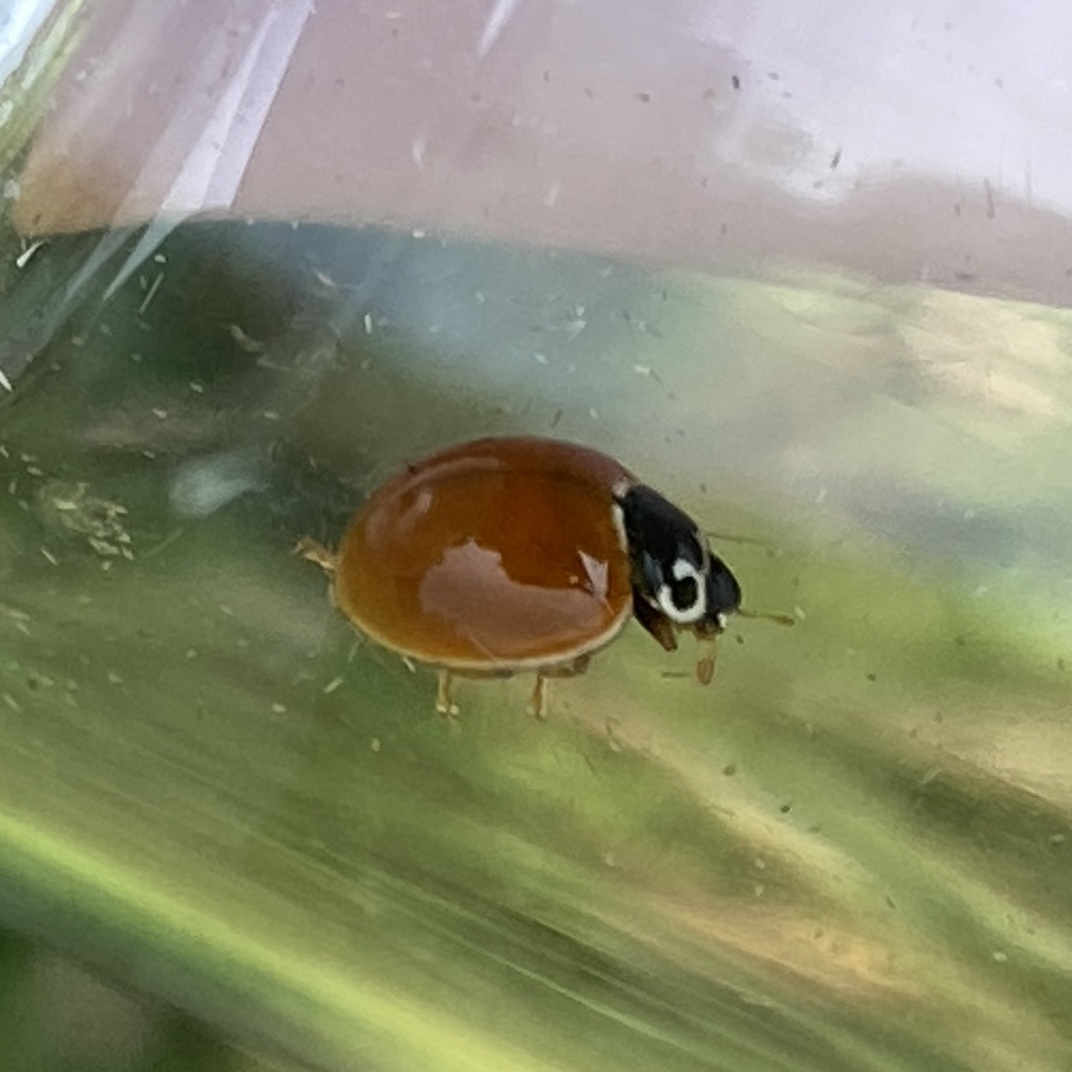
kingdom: Animalia
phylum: Arthropoda
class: Insecta
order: Coleoptera
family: Coccinellidae
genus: Cycloneda
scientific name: Cycloneda munda
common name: Polished lady beetle
